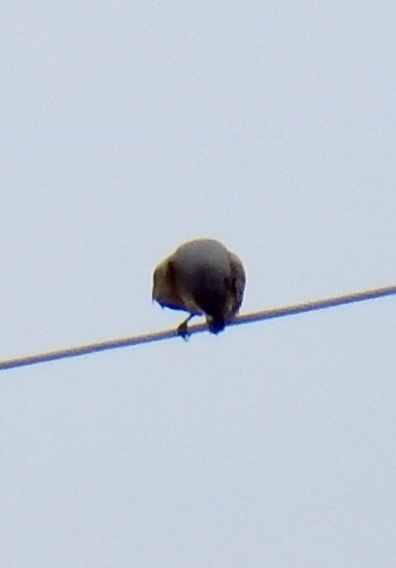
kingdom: Animalia
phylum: Chordata
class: Aves
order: Passeriformes
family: Tyrannidae
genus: Tyrannus
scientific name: Tyrannus vociferans
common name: Cassin's kingbird
